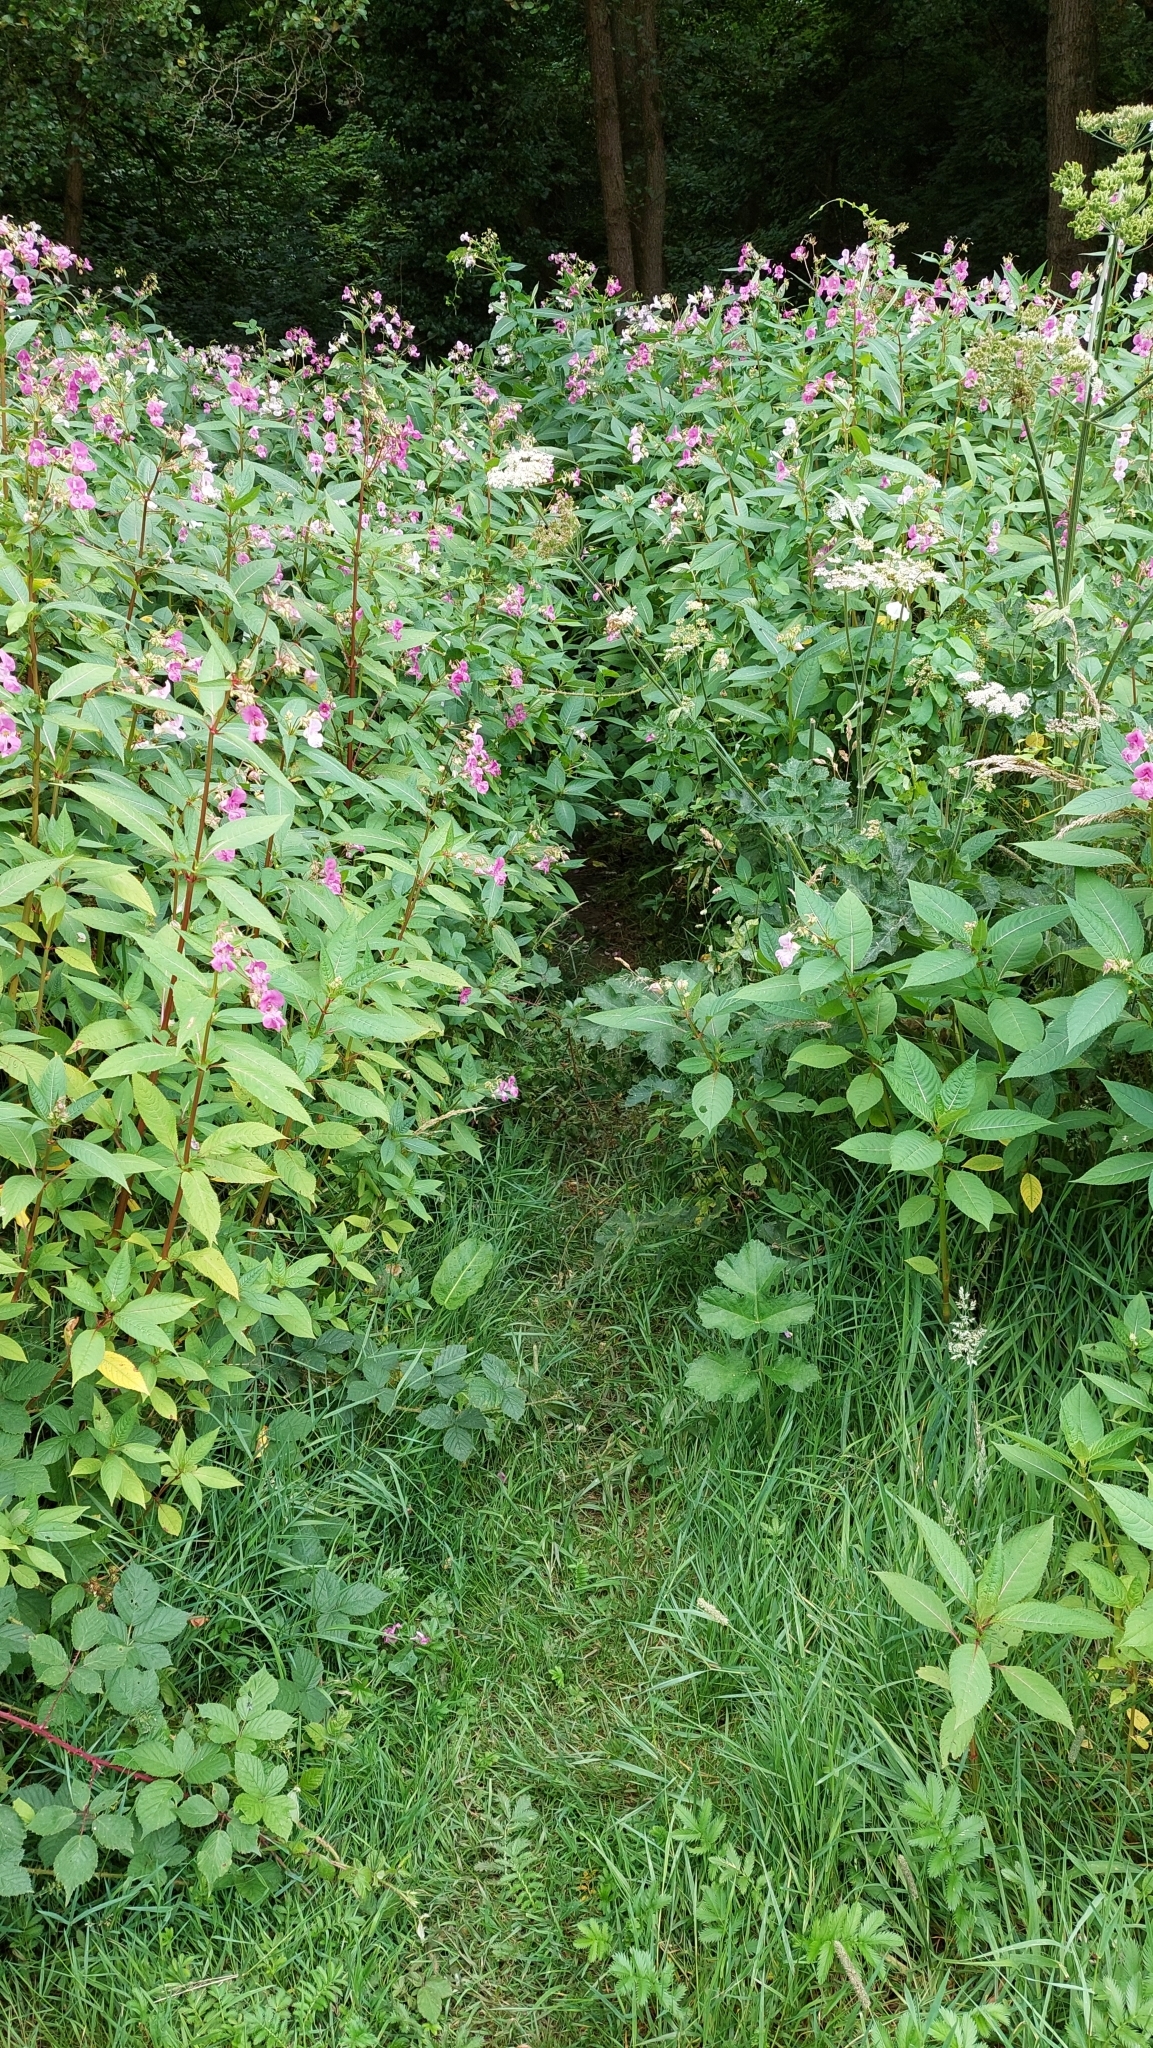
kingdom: Plantae
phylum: Tracheophyta
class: Magnoliopsida
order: Ericales
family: Balsaminaceae
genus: Impatiens
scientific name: Impatiens glandulifera
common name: Himalayan balsam
